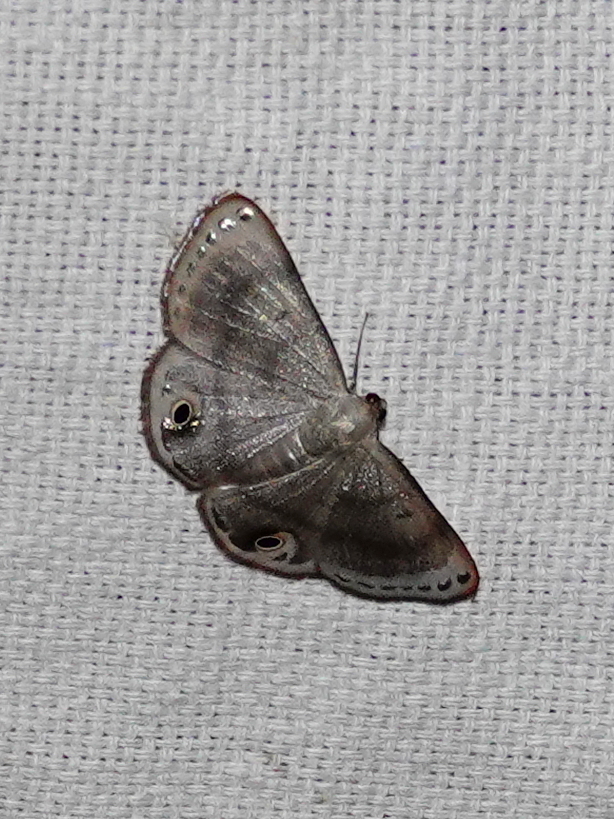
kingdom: Animalia
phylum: Arthropoda
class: Insecta
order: Lepidoptera
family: Geometridae
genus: Tasta
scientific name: Tasta micaceata
